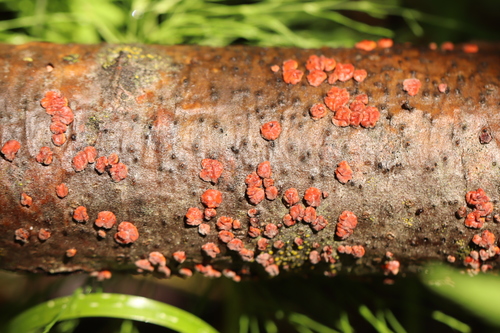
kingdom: Fungi
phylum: Basidiomycota
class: Agaricomycetes
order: Russulales
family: Peniophoraceae
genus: Peniophora
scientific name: Peniophora rufa
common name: Red tree brain fungus
